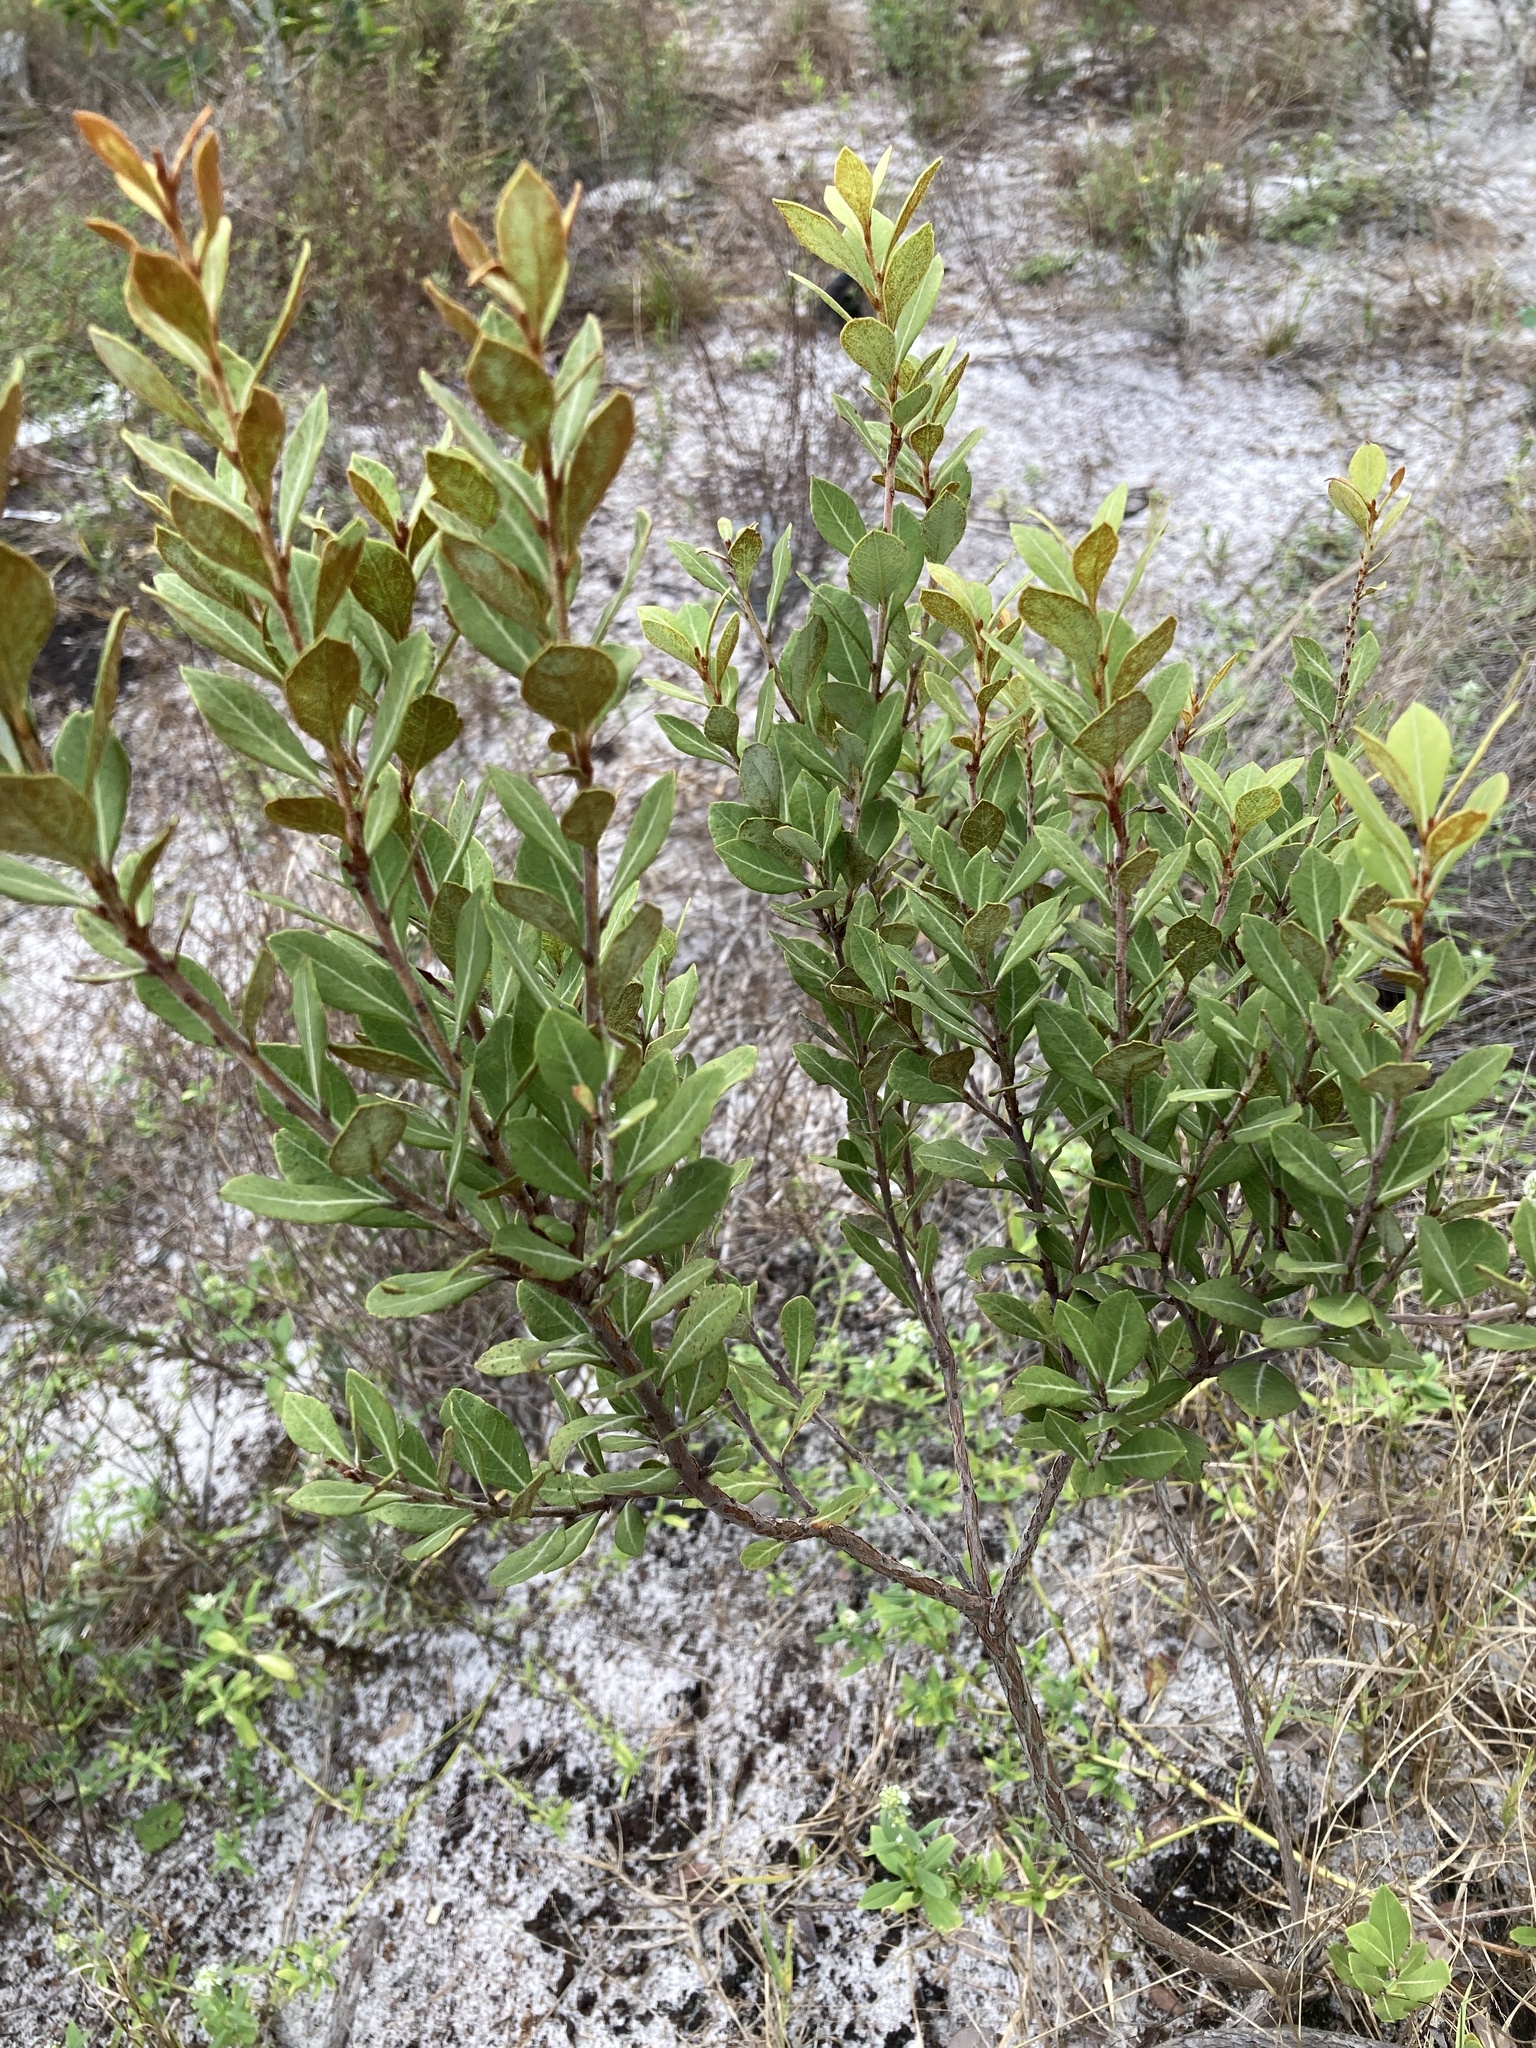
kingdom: Plantae
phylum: Tracheophyta
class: Magnoliopsida
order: Ericales
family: Ericaceae
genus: Lyonia
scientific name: Lyonia fruticosa
